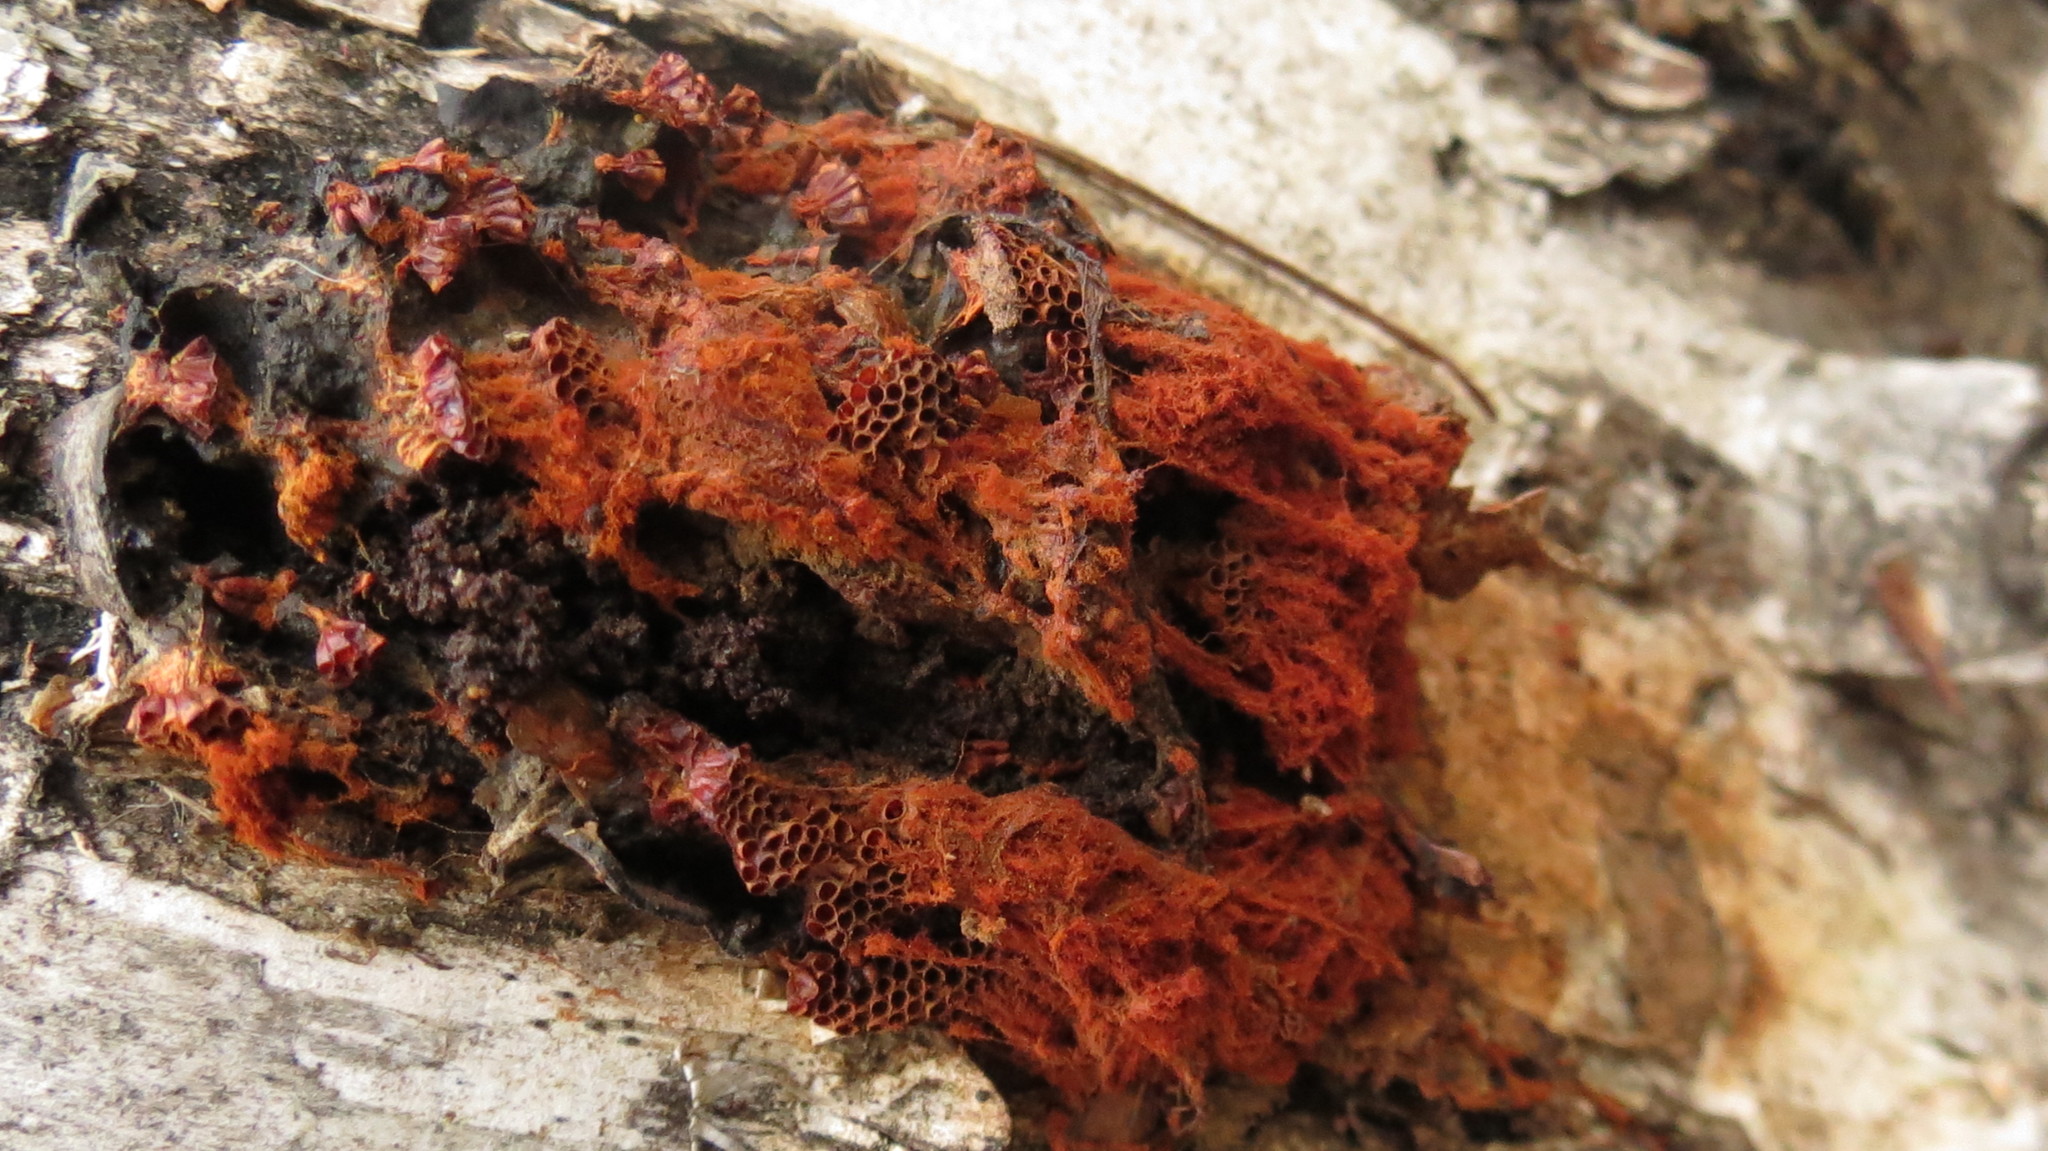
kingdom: Protozoa
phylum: Mycetozoa
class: Myxomycetes
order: Trichiales
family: Trichiaceae
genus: Metatrichia
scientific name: Metatrichia vesparia
